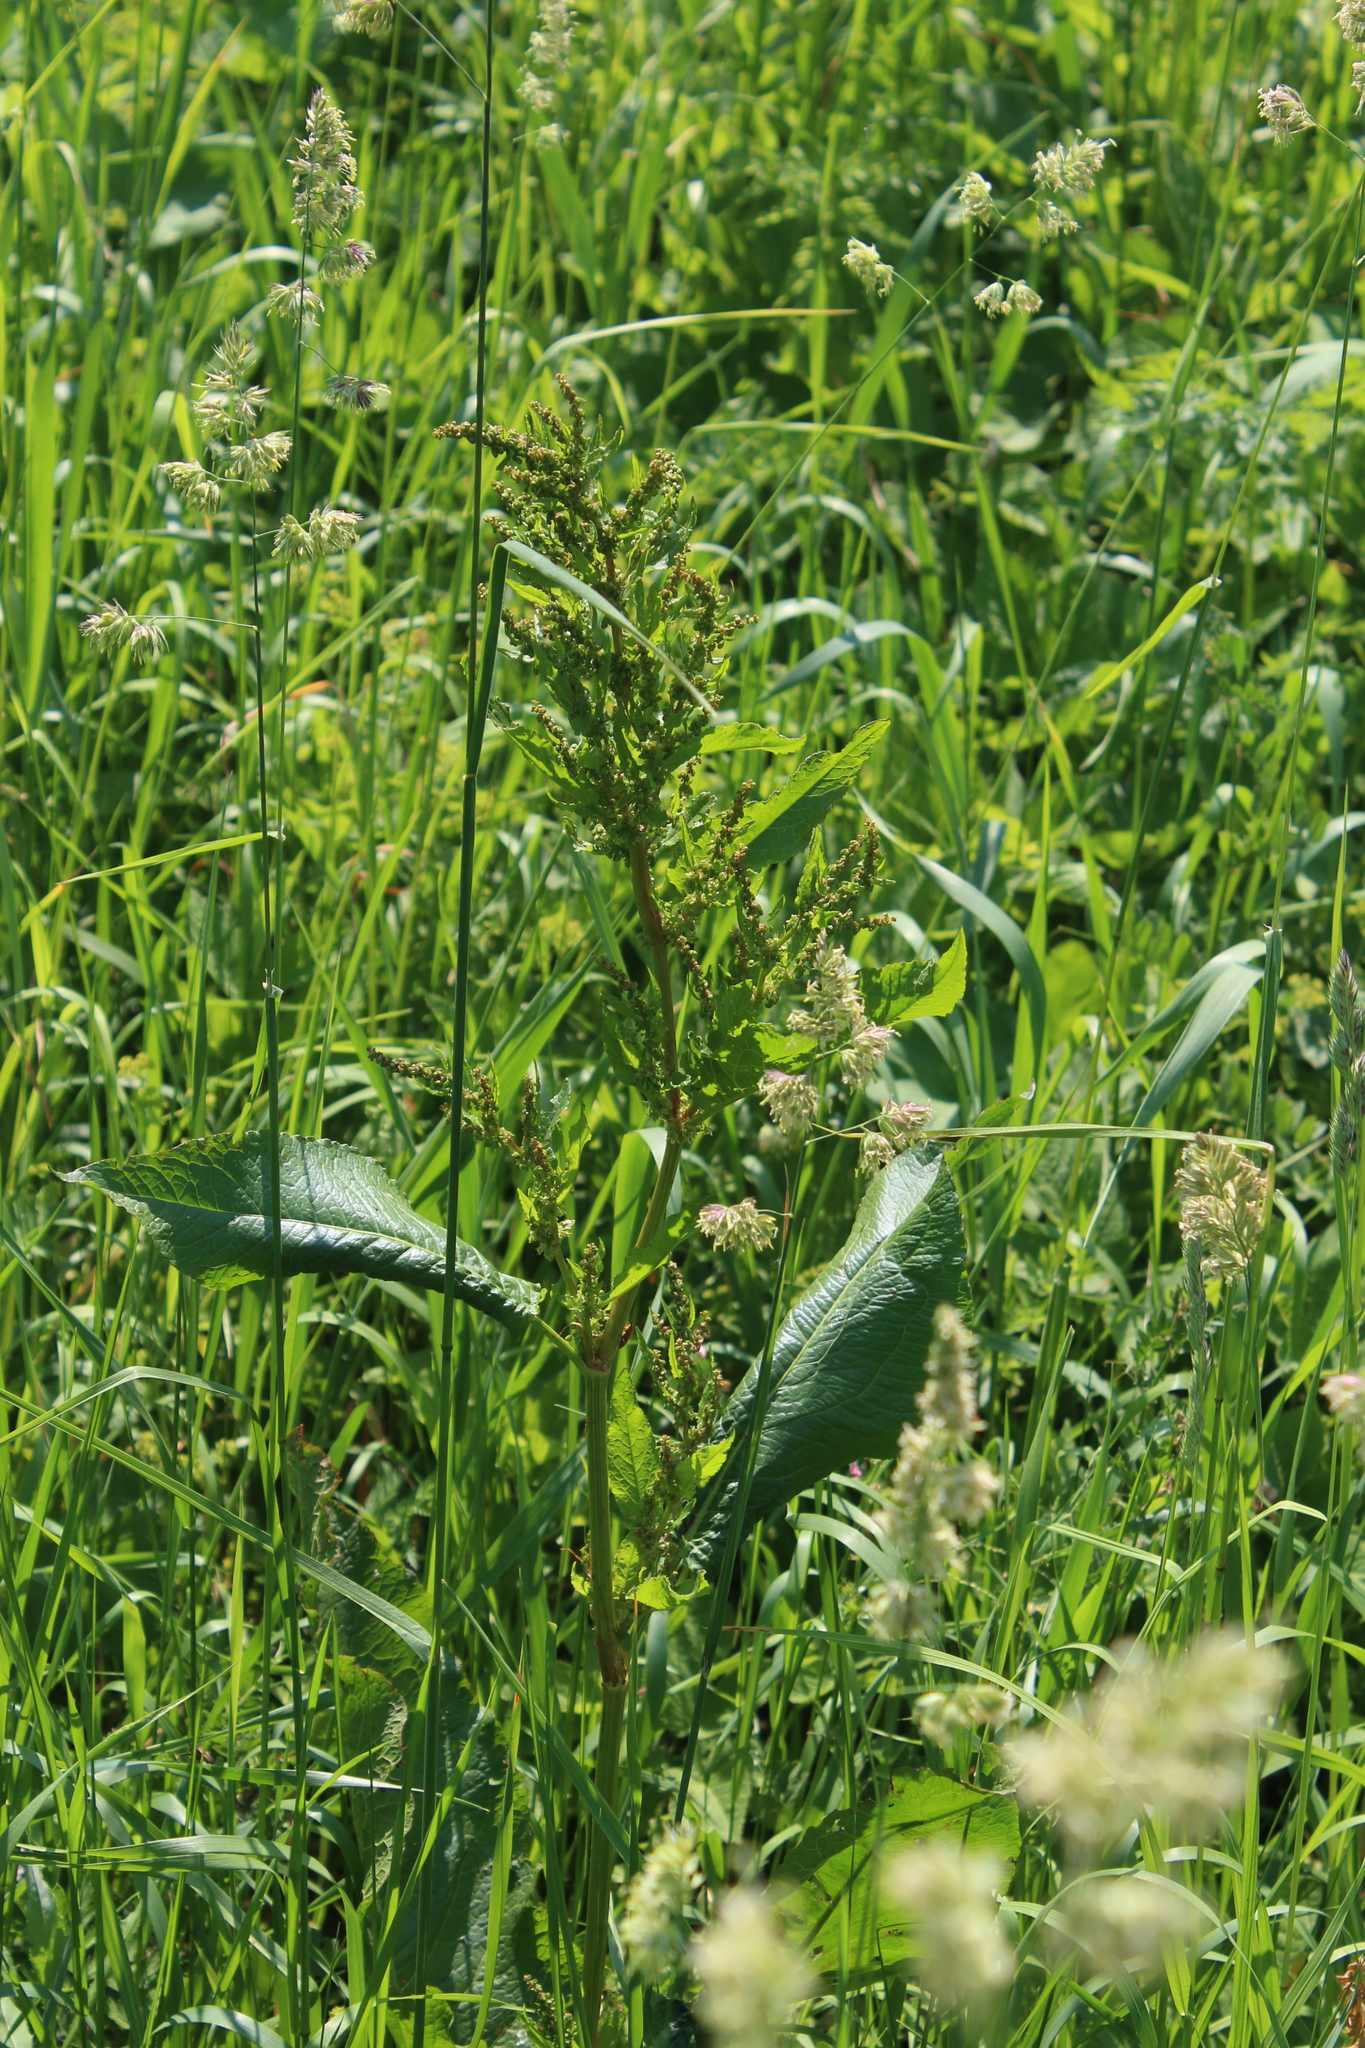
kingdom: Plantae
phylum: Tracheophyta
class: Magnoliopsida
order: Caryophyllales
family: Polygonaceae
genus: Rumex
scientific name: Rumex obtusifolius
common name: Bitter dock
